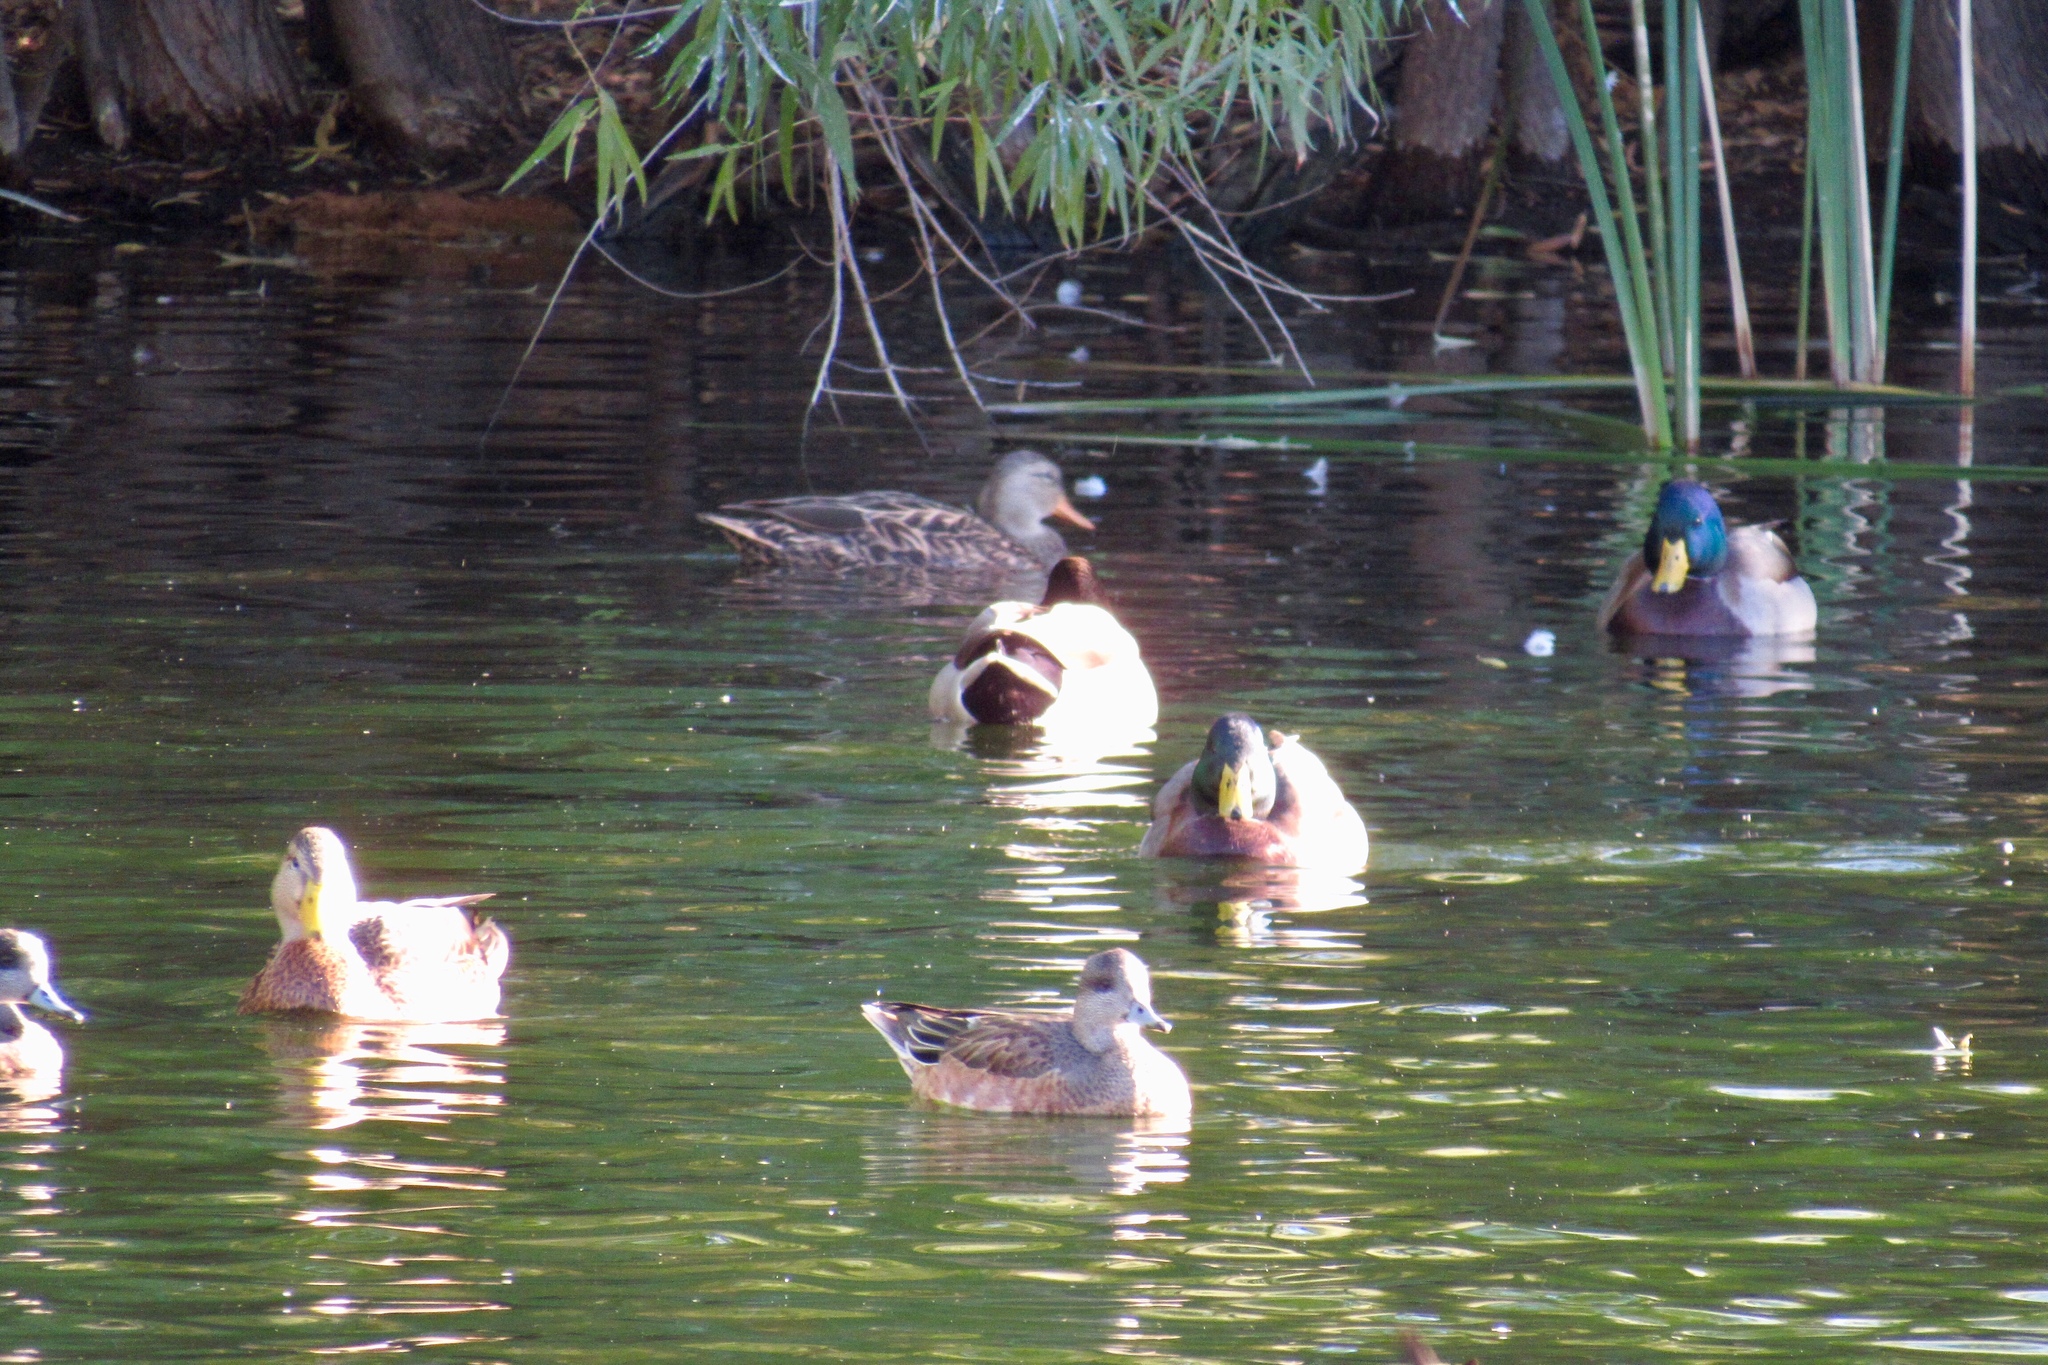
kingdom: Animalia
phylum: Chordata
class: Aves
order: Anseriformes
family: Anatidae
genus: Anas
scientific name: Anas platyrhynchos
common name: Mallard
